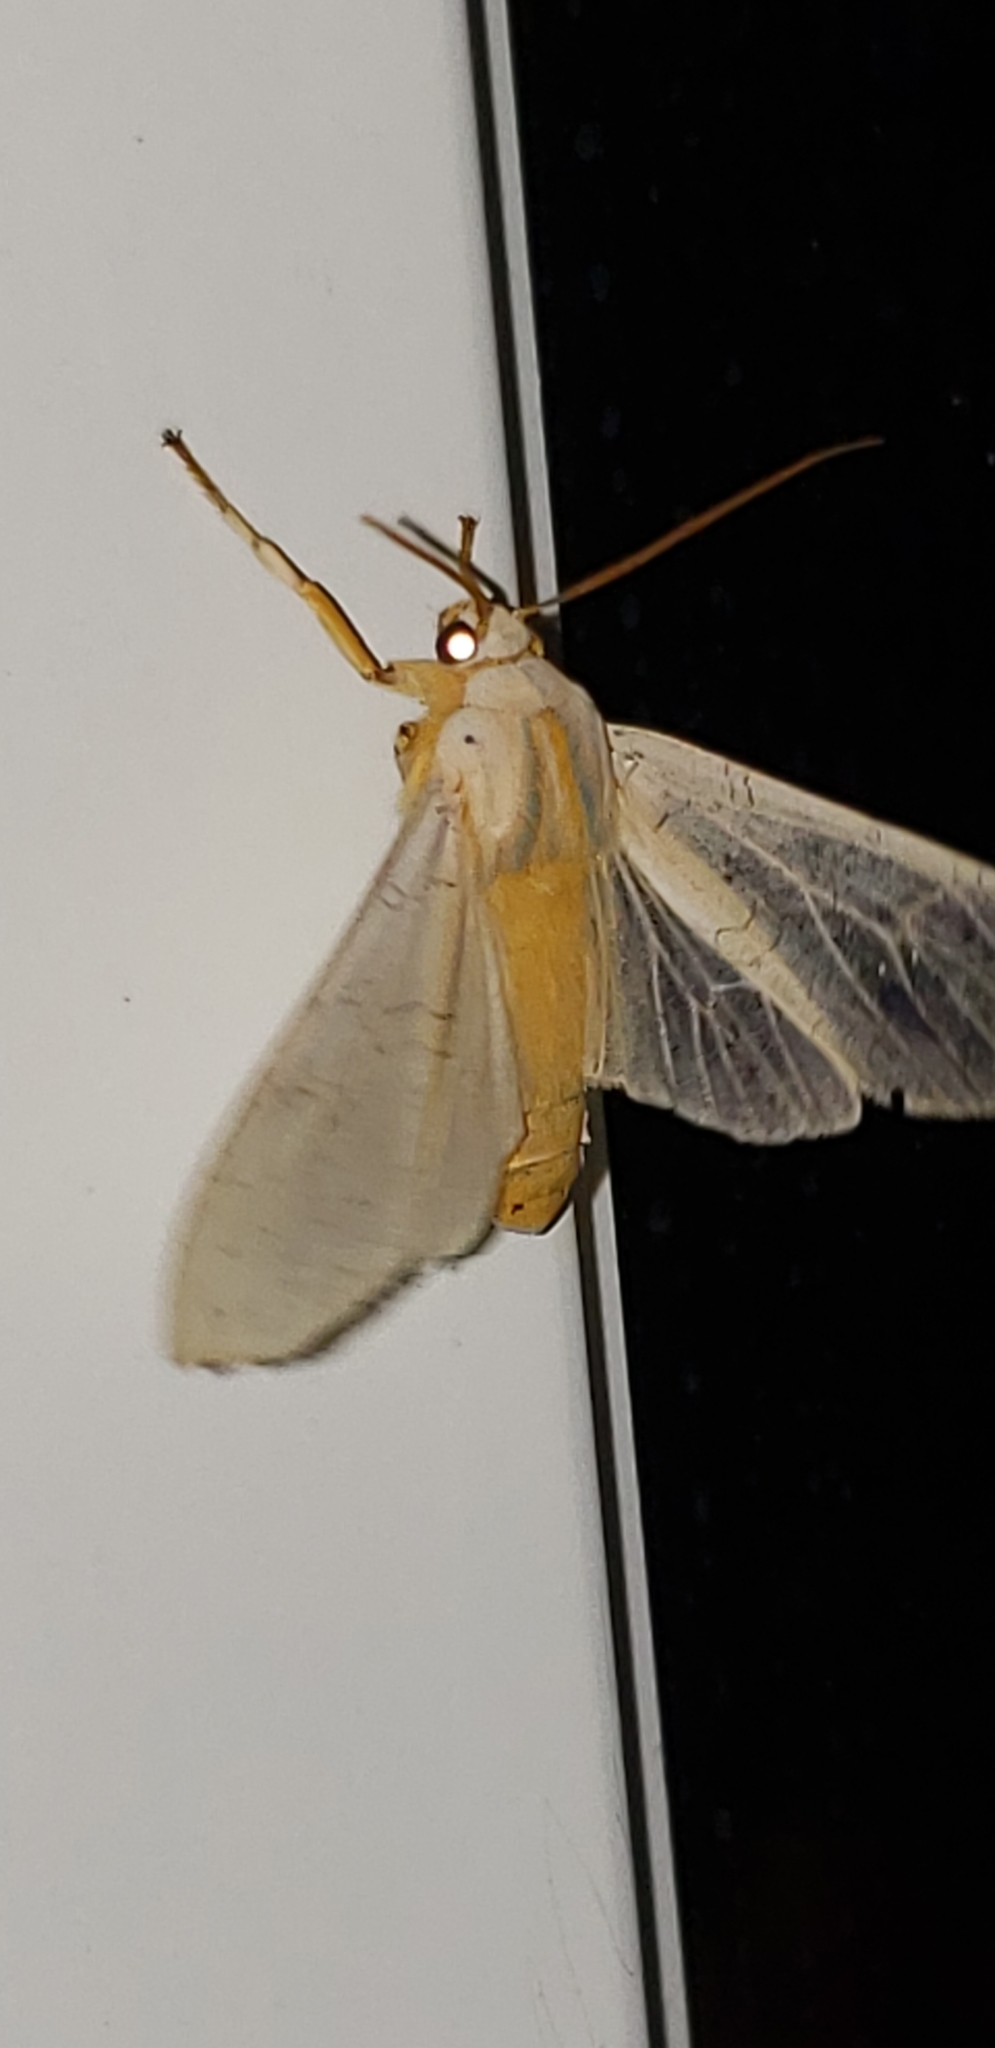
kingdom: Animalia
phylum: Arthropoda
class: Insecta
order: Lepidoptera
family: Erebidae
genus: Halysidota
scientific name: Halysidota
